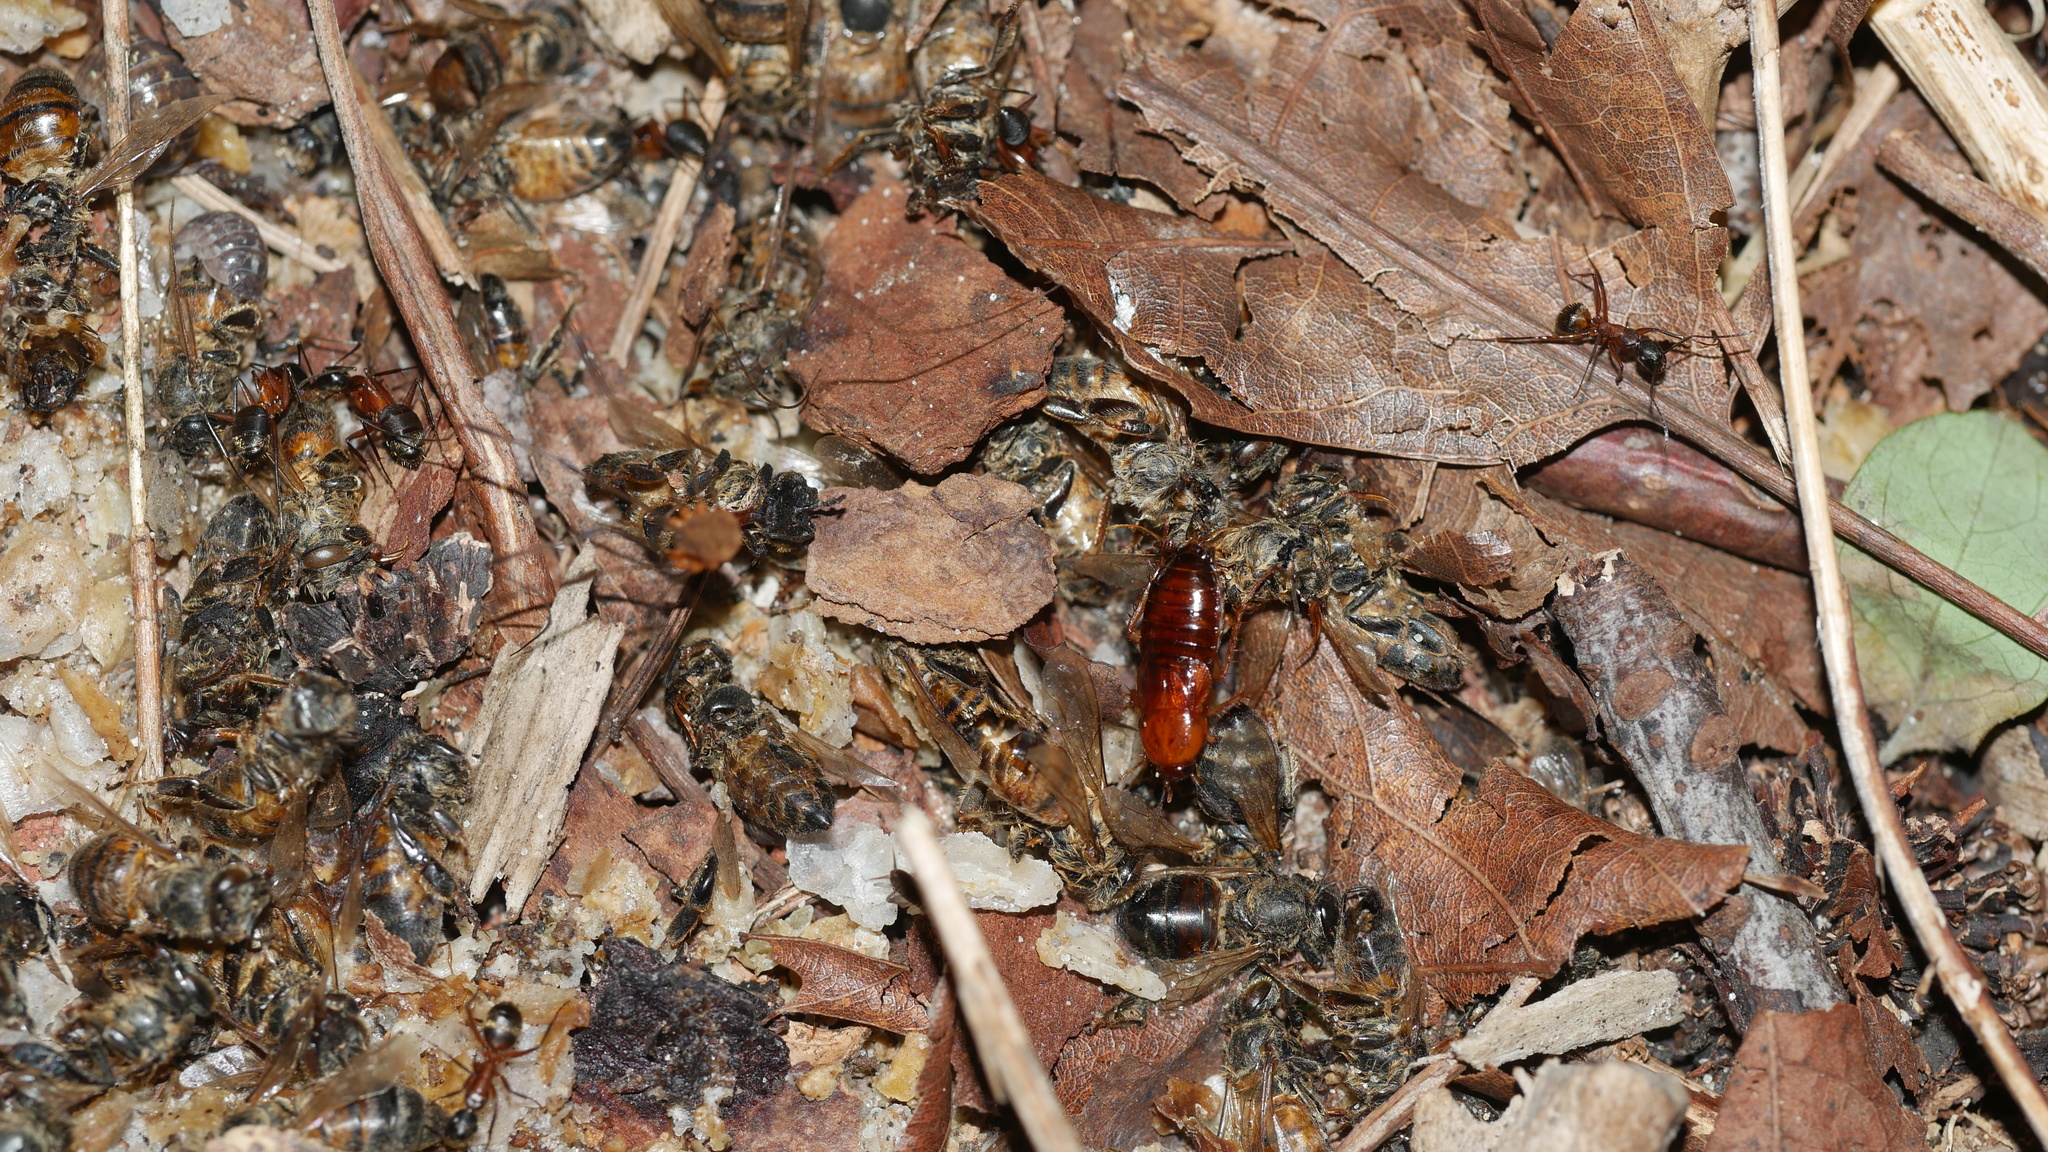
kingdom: Animalia
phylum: Arthropoda
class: Insecta
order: Blattodea
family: Ectobiidae
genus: Parcoblatta
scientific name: Parcoblatta
